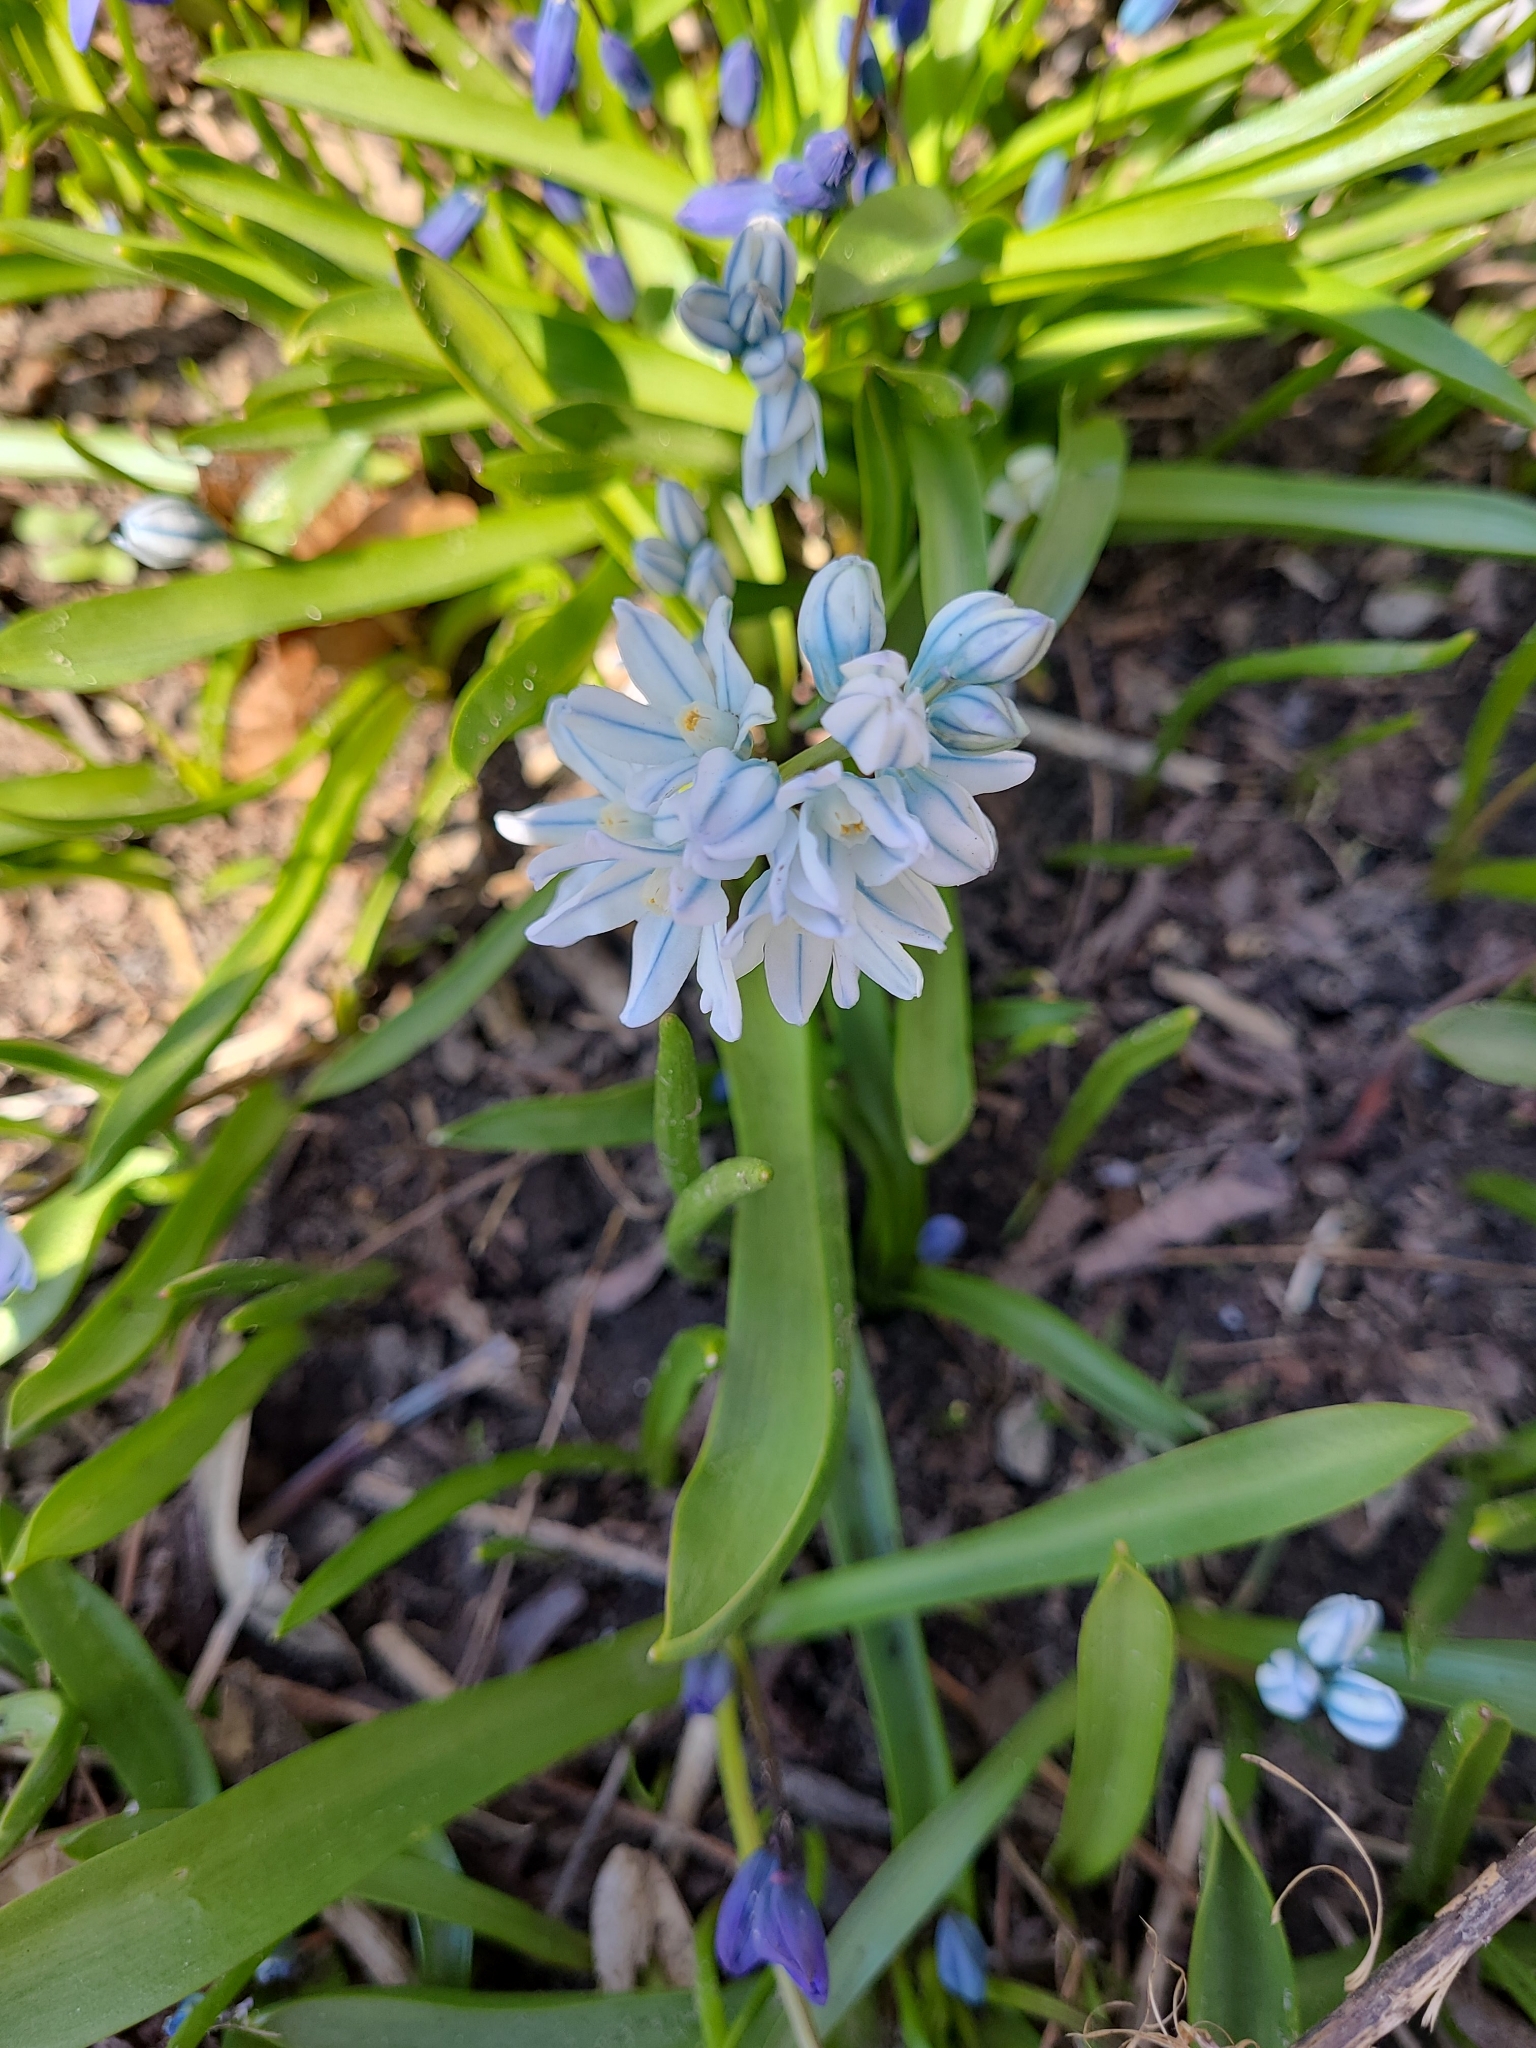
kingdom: Plantae
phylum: Tracheophyta
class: Liliopsida
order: Asparagales
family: Asparagaceae
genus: Puschkinia
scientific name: Puschkinia scilloides
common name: Striped squill
